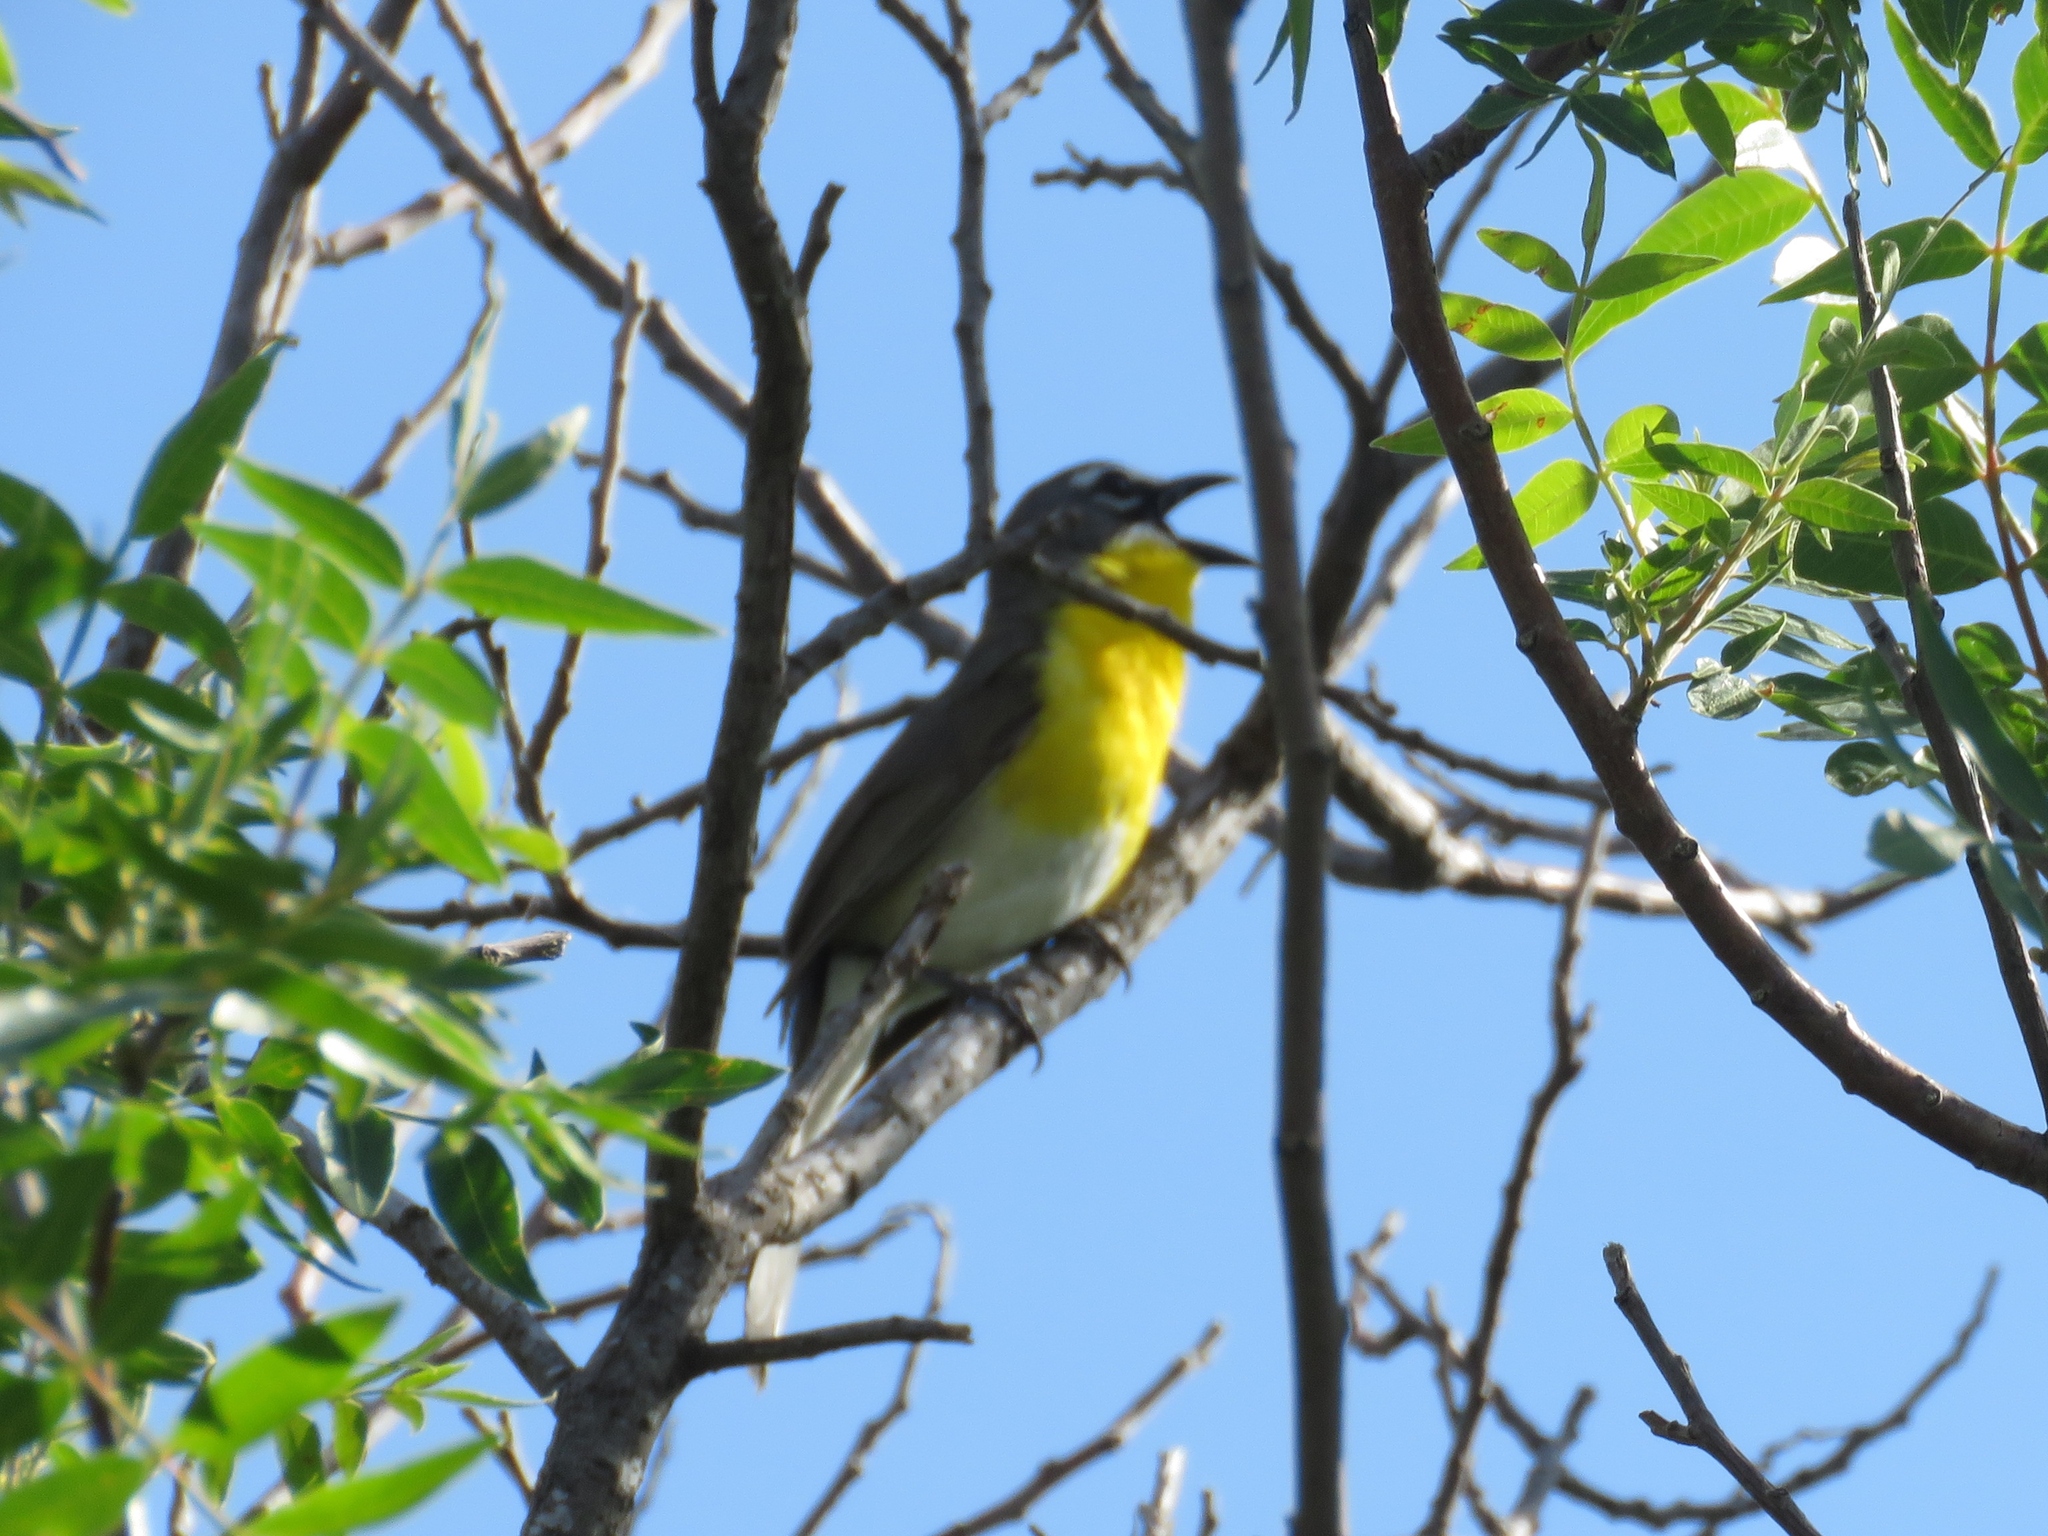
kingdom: Animalia
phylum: Chordata
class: Aves
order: Passeriformes
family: Parulidae
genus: Icteria
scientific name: Icteria virens
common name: Yellow-breasted chat
